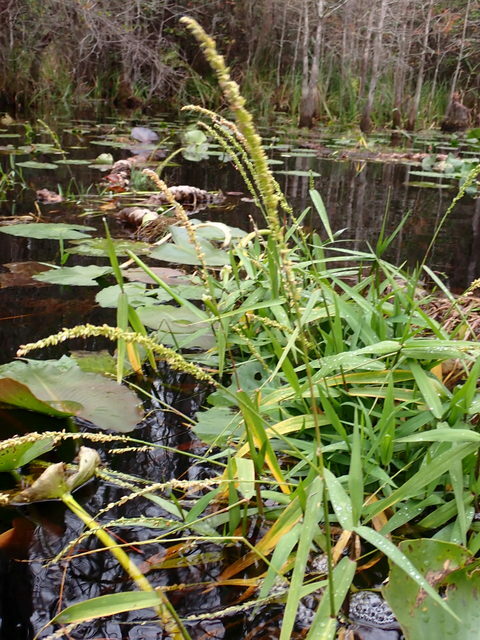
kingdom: Plantae
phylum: Tracheophyta
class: Liliopsida
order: Poales
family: Poaceae
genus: Sacciolepis
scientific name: Sacciolepis striata
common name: American cupscale
